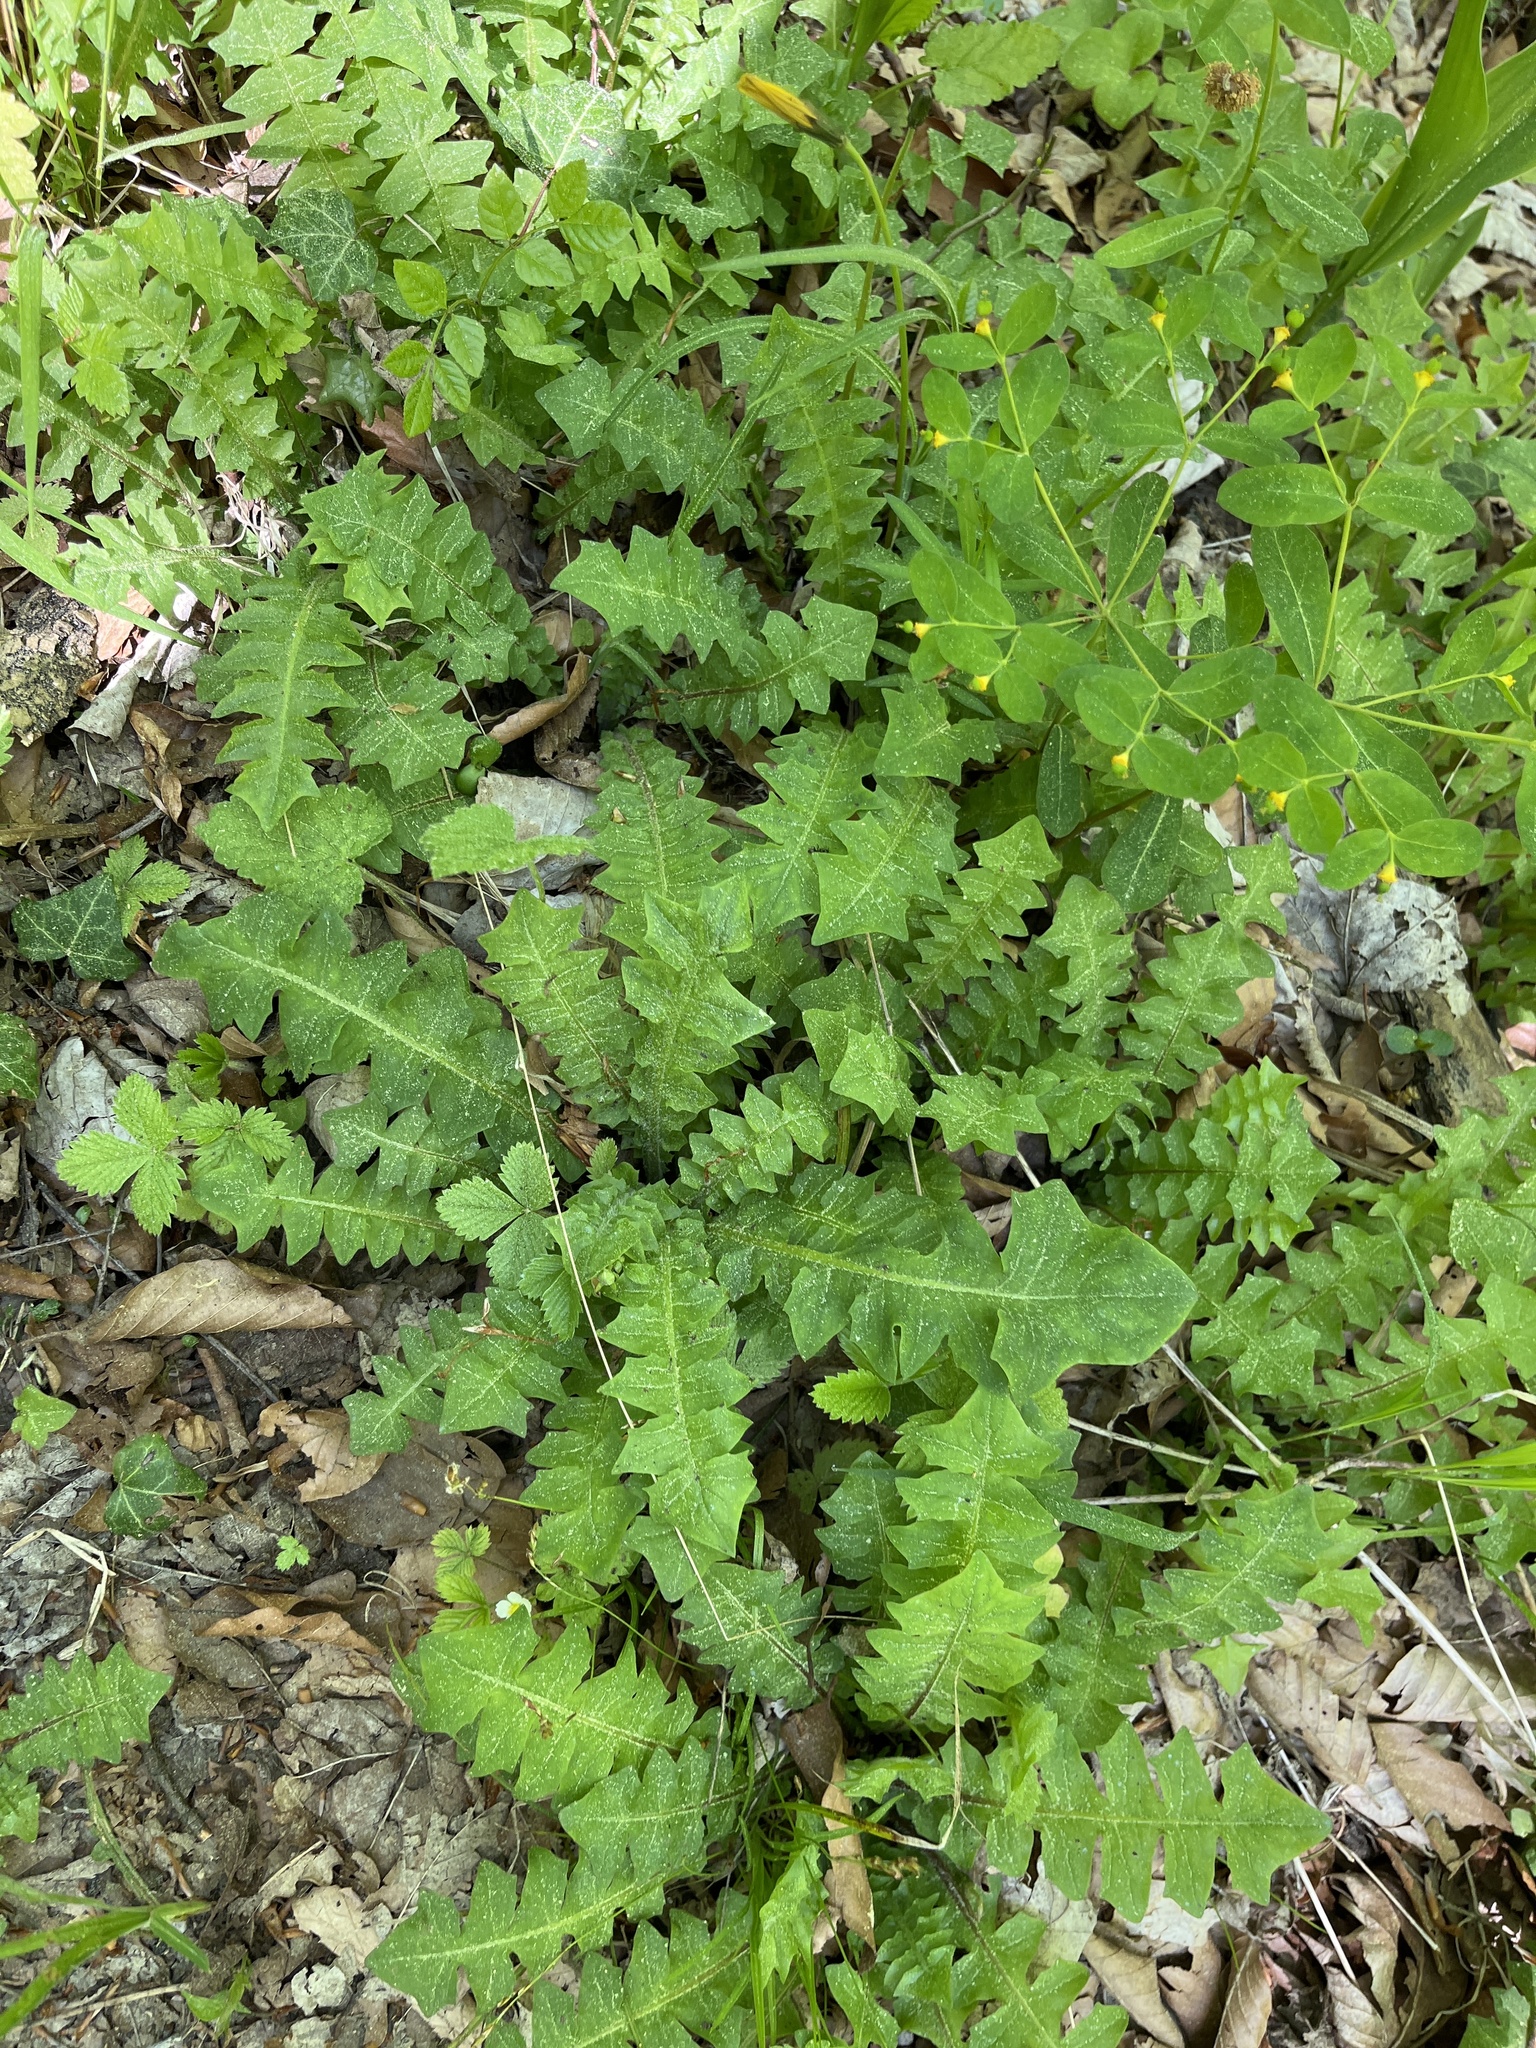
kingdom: Plantae
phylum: Tracheophyta
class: Magnoliopsida
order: Asterales
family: Asteraceae
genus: Aposeris
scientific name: Aposeris foetida
